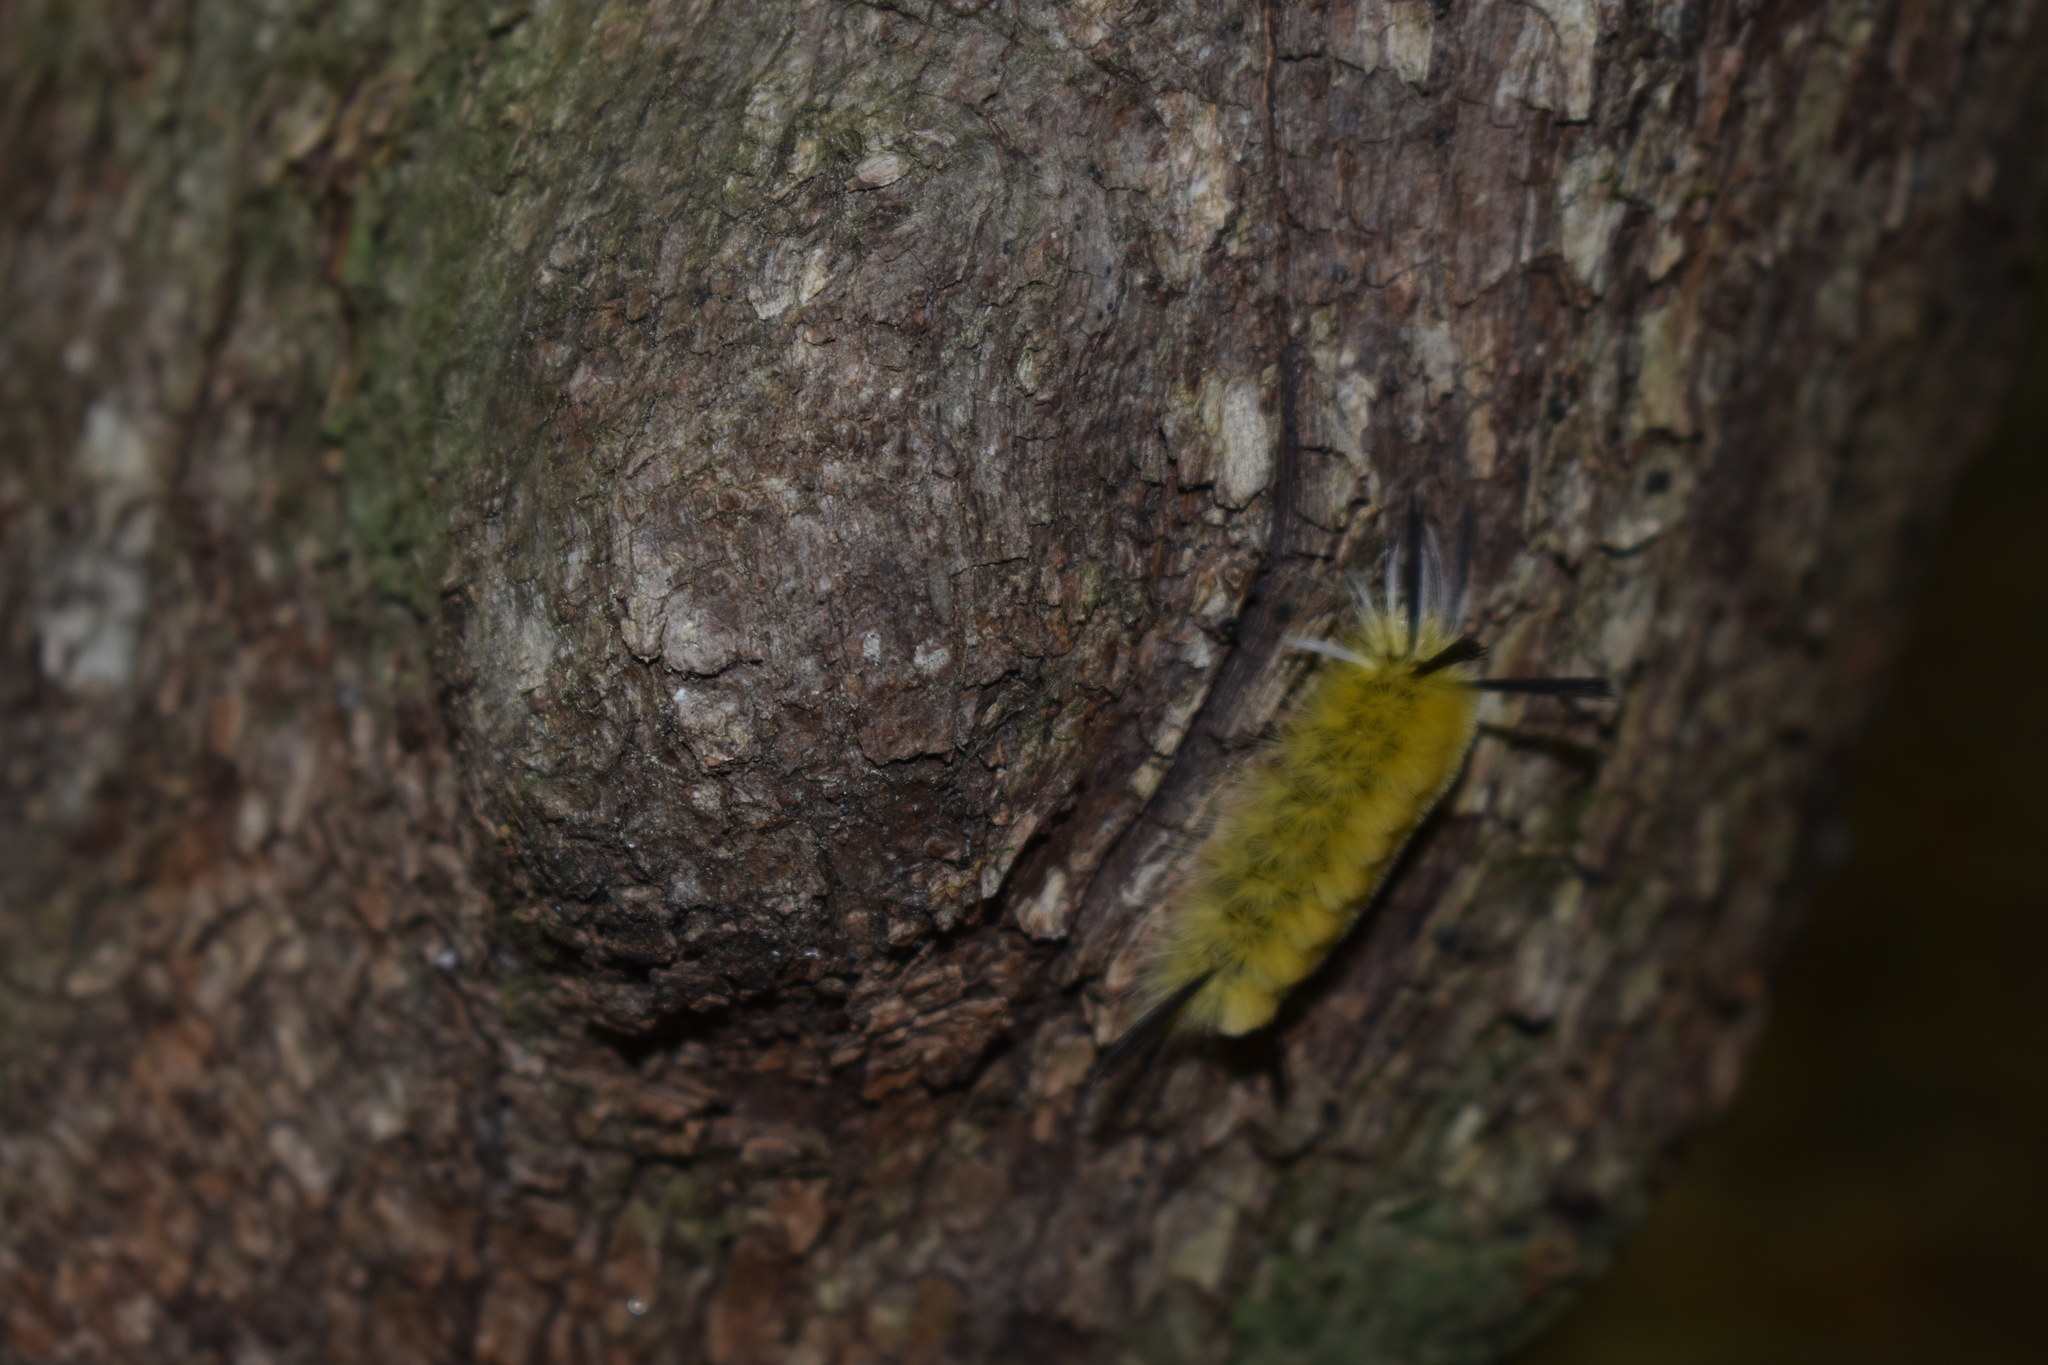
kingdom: Animalia
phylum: Arthropoda
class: Insecta
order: Lepidoptera
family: Erebidae
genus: Halysidota
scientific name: Halysidota tessellaris
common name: Banded tussock moth
